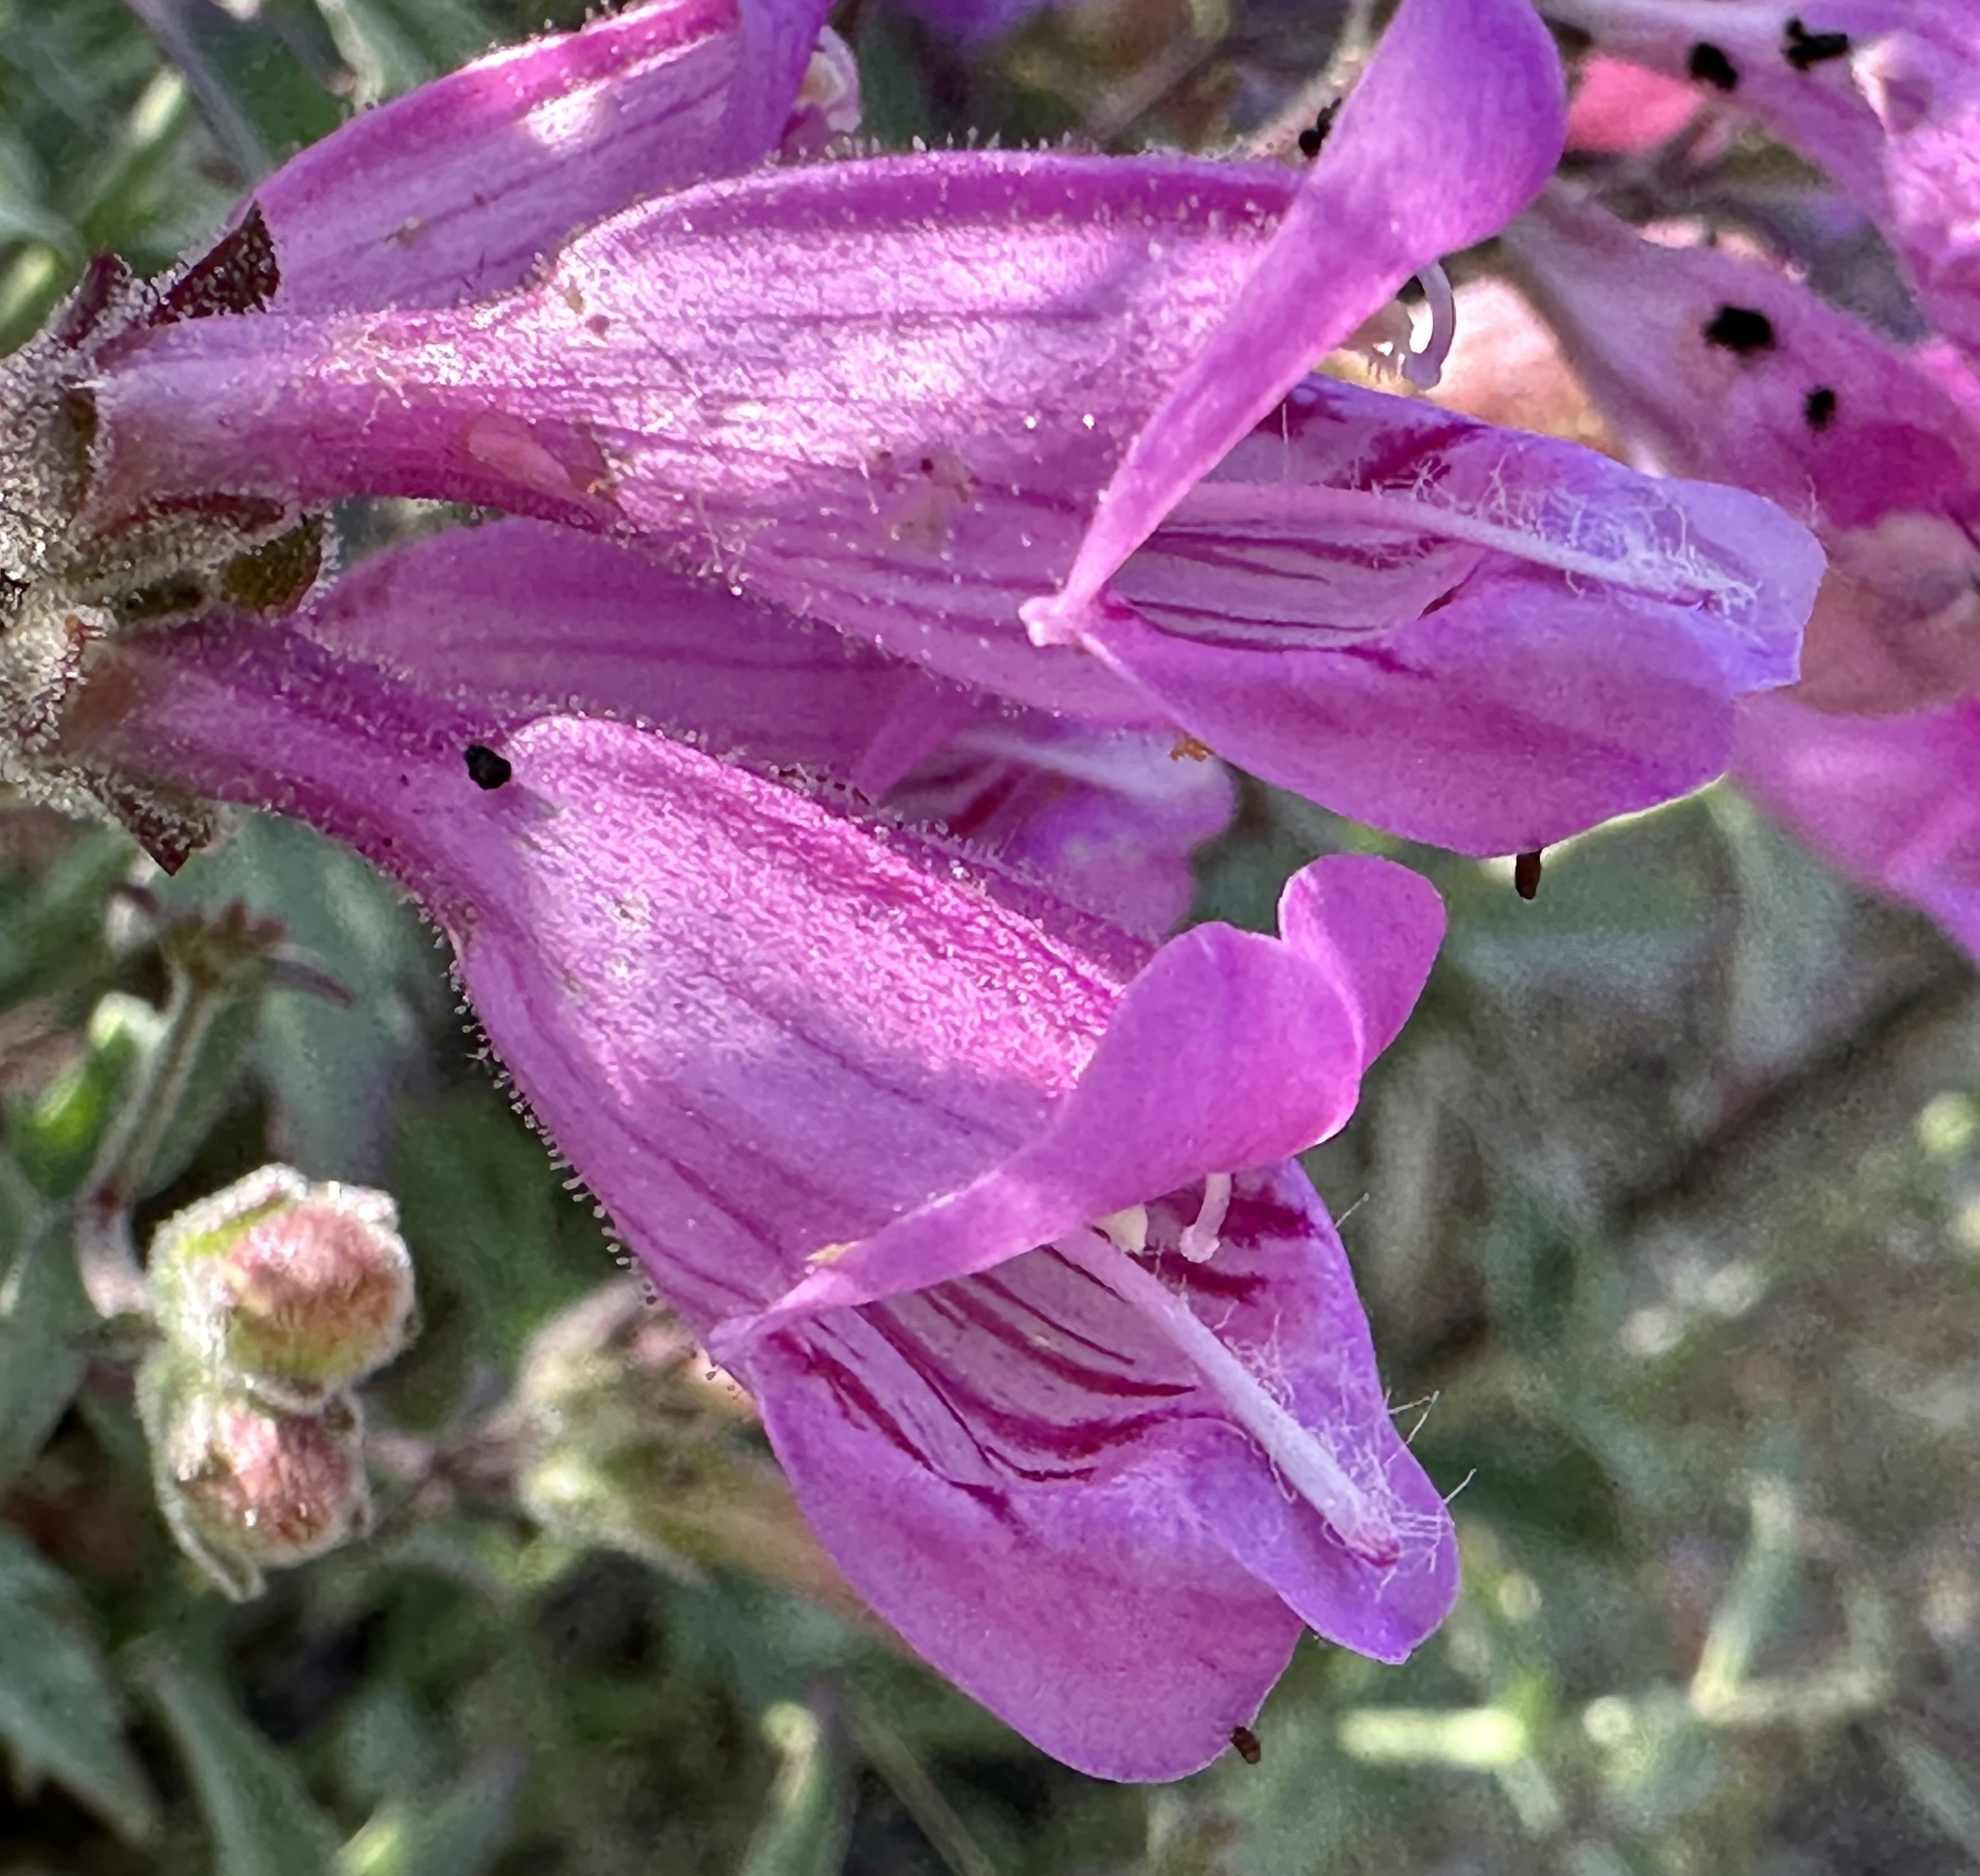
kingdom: Plantae
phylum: Tracheophyta
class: Magnoliopsida
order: Lamiales
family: Plantaginaceae
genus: Penstemon
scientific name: Penstemon richardsonii
